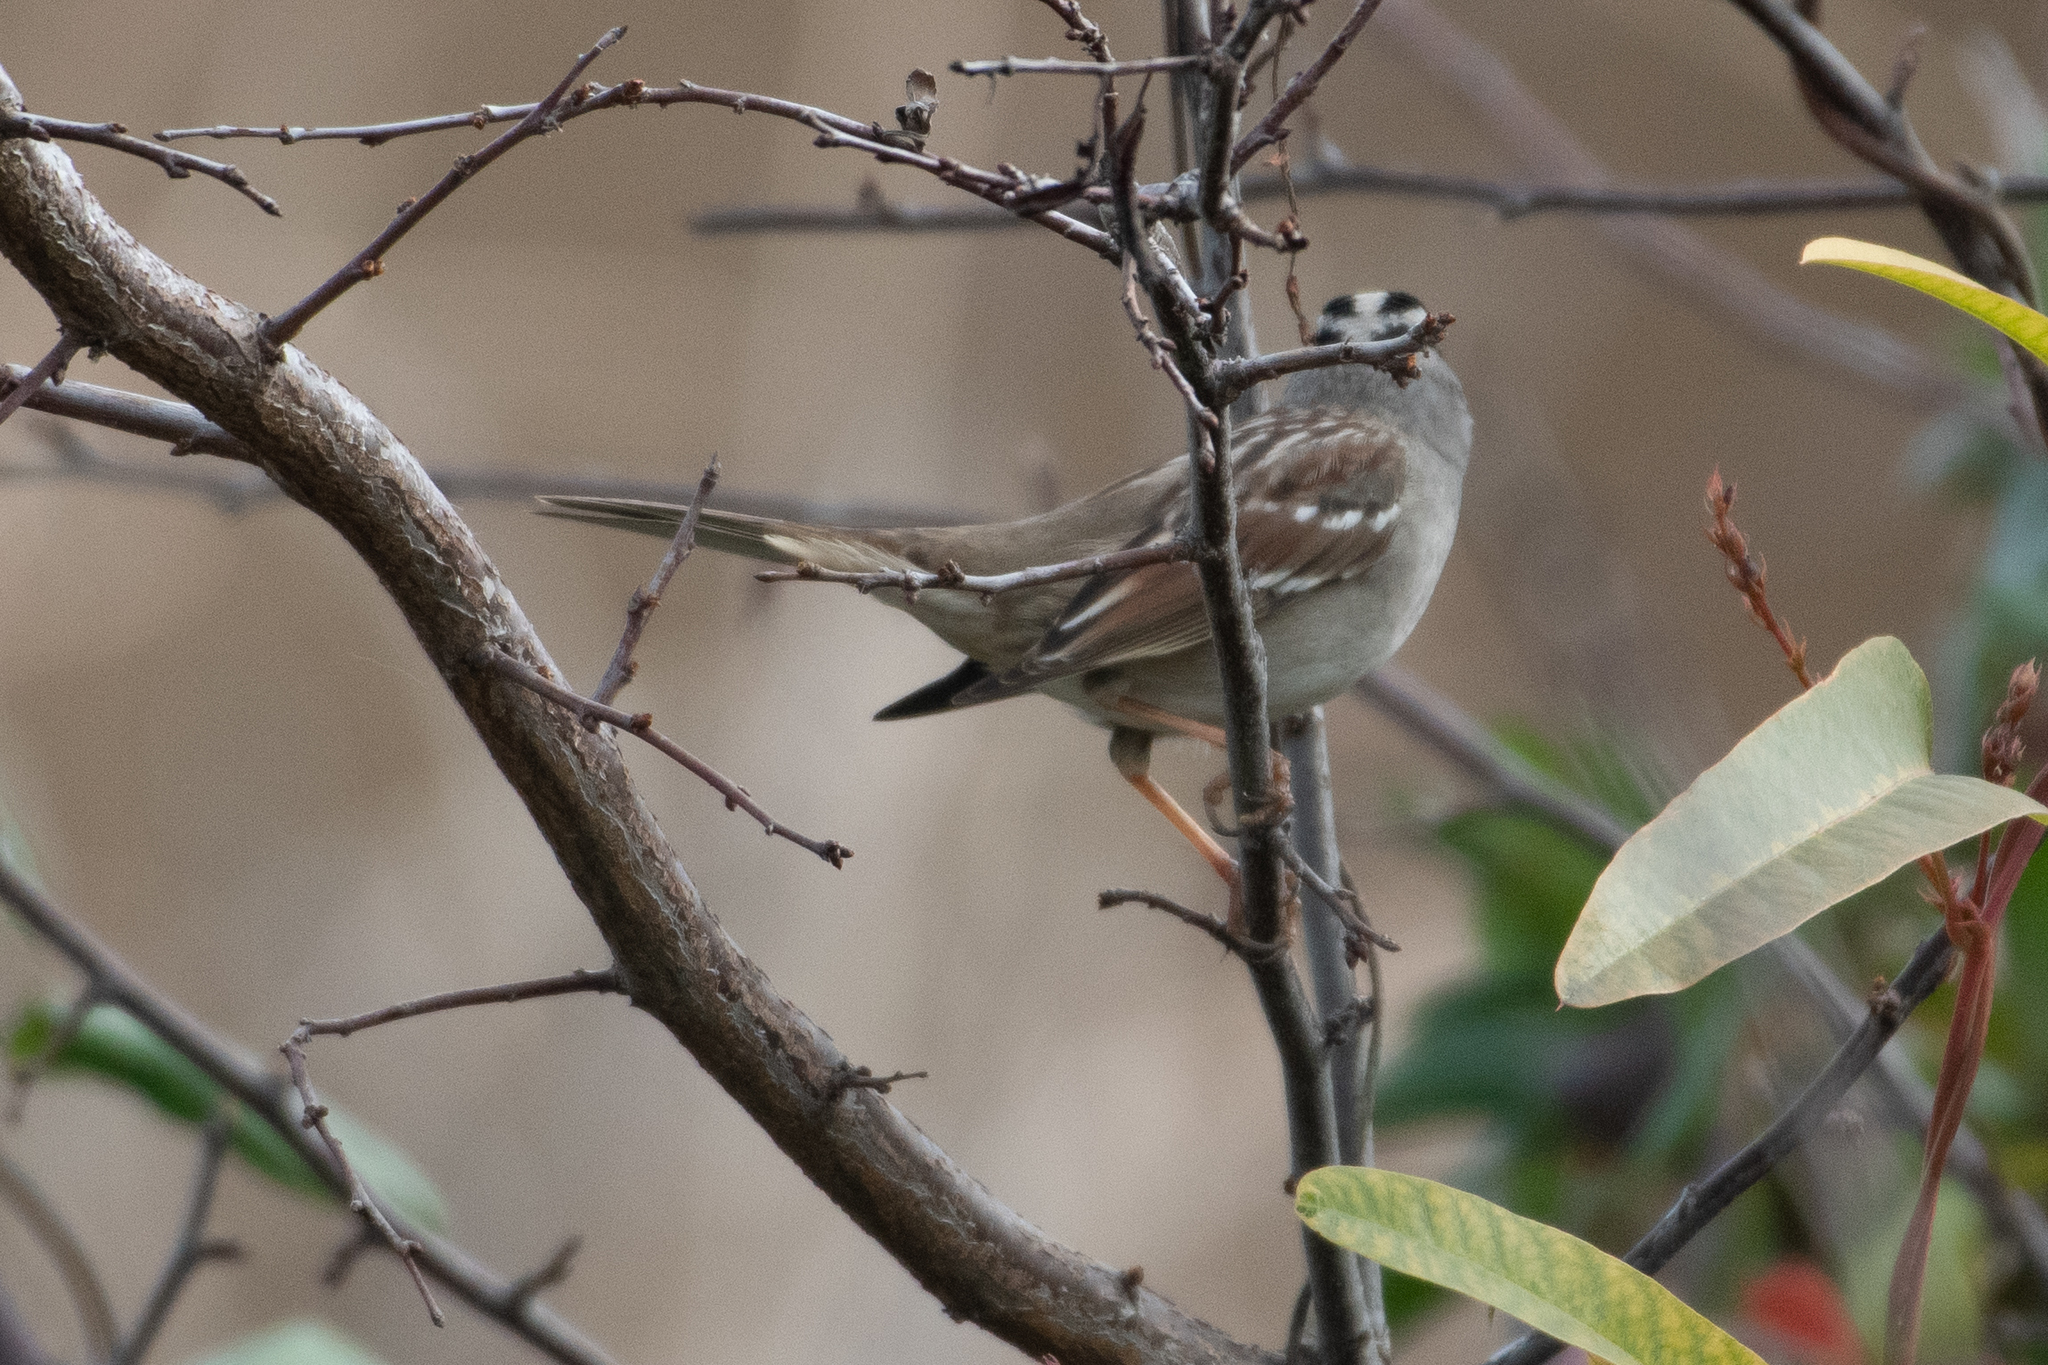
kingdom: Animalia
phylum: Chordata
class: Aves
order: Passeriformes
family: Passerellidae
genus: Zonotrichia
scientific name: Zonotrichia leucophrys
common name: White-crowned sparrow
